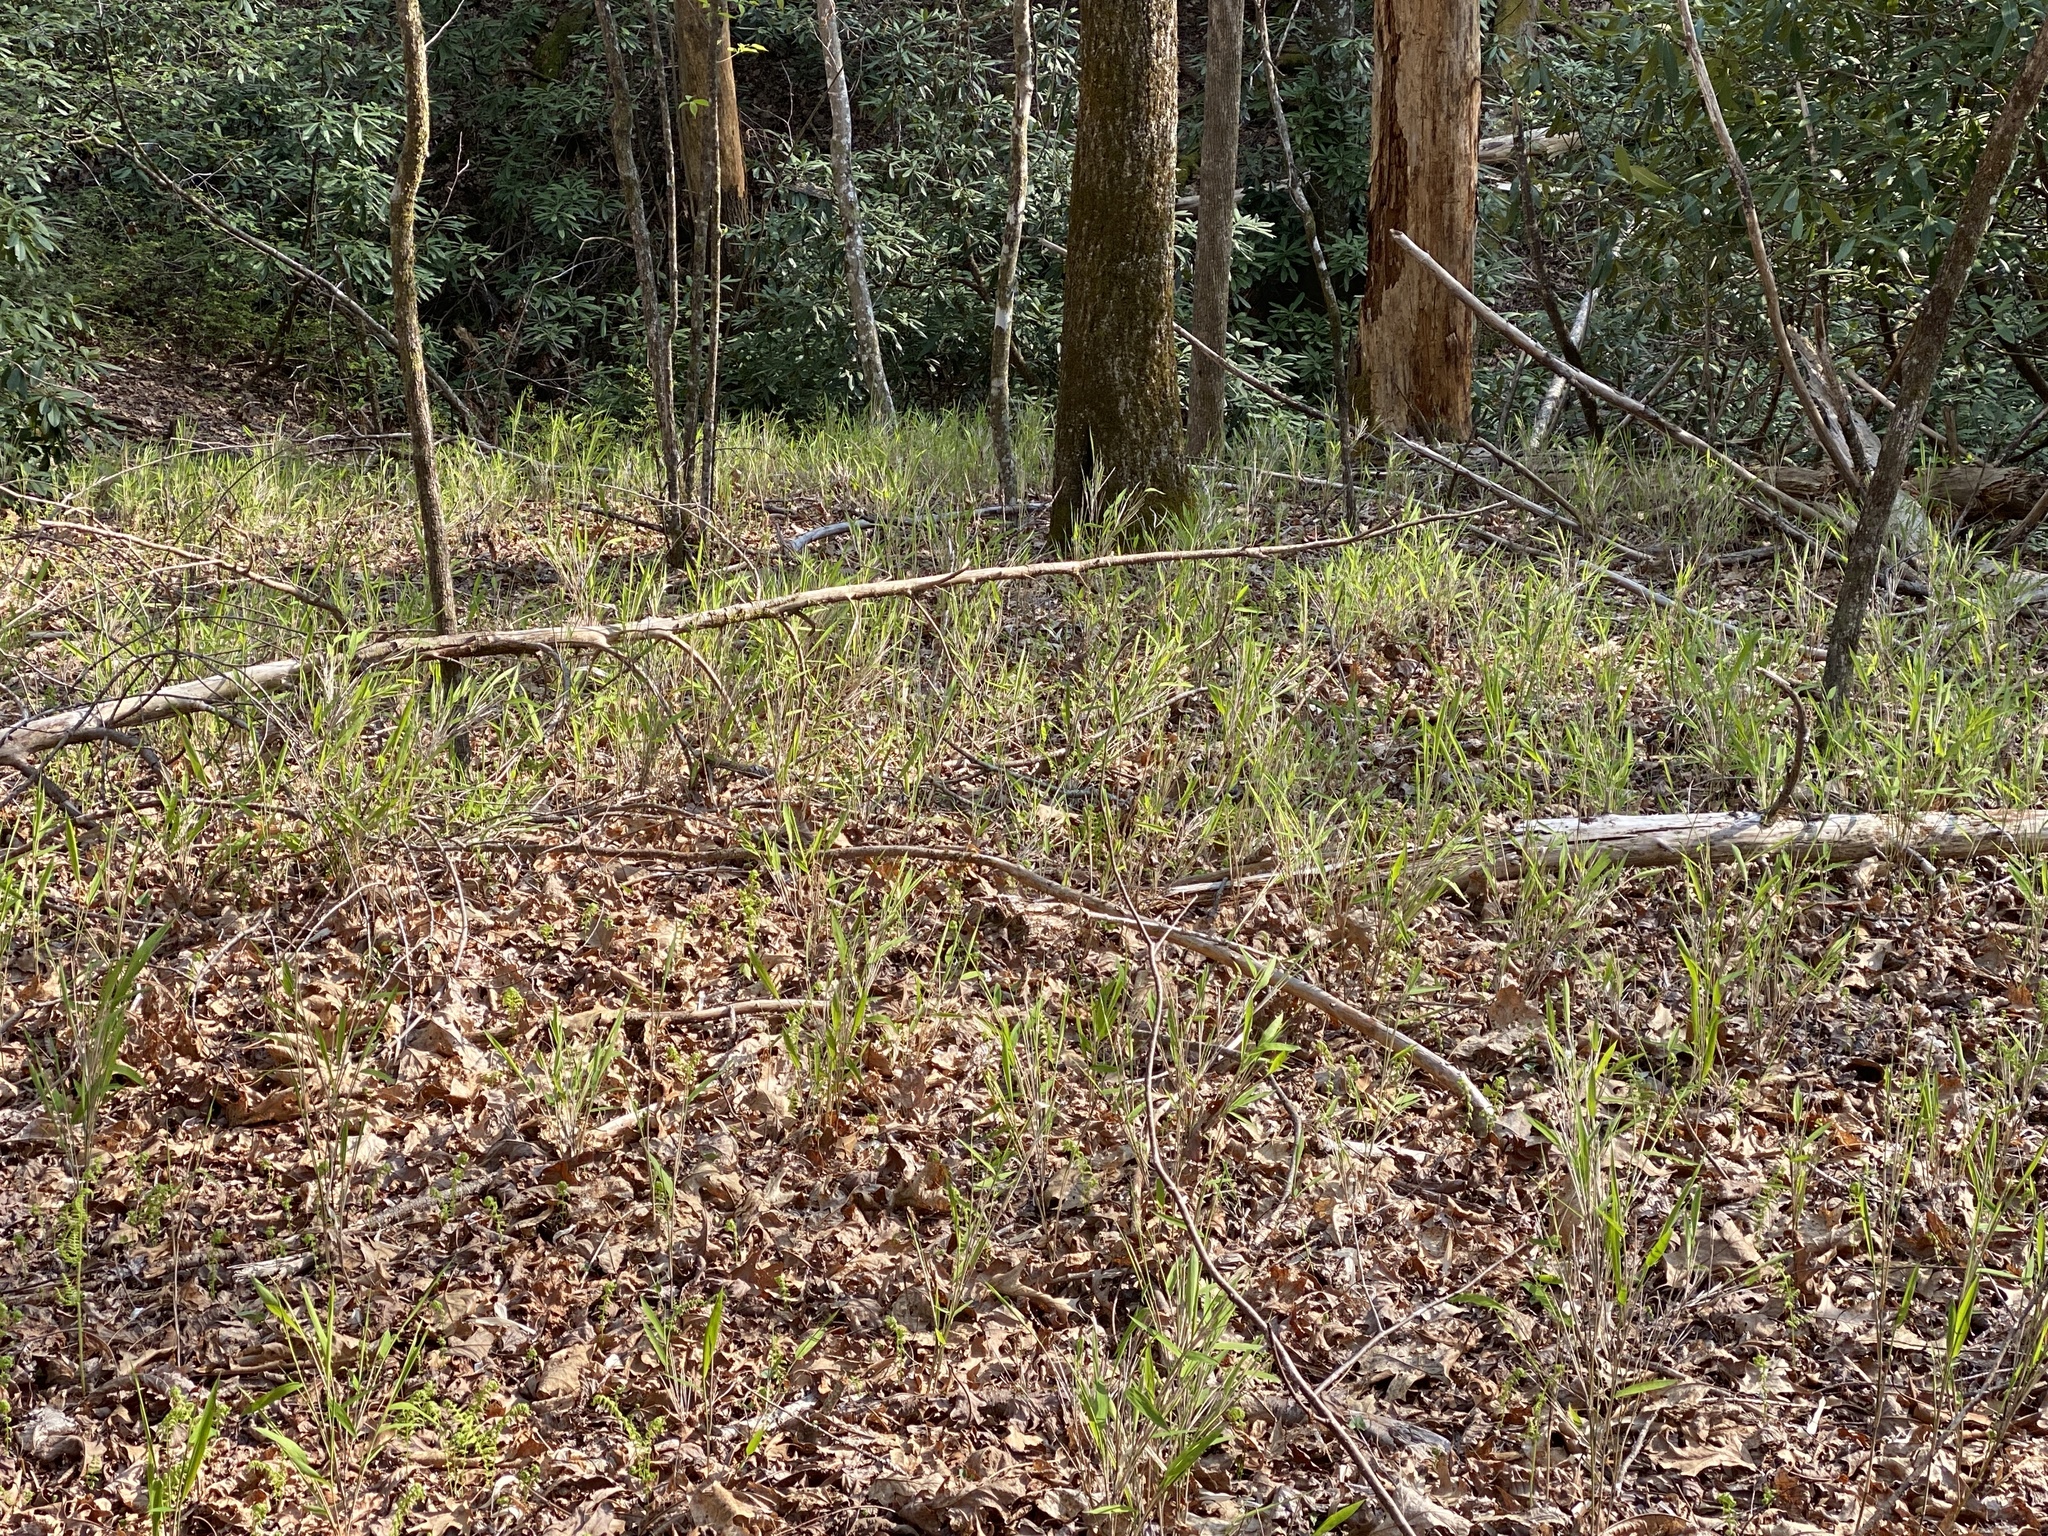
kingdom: Plantae
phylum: Tracheophyta
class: Liliopsida
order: Poales
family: Poaceae
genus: Arundinaria
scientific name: Arundinaria appalachiana
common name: Hill cane
